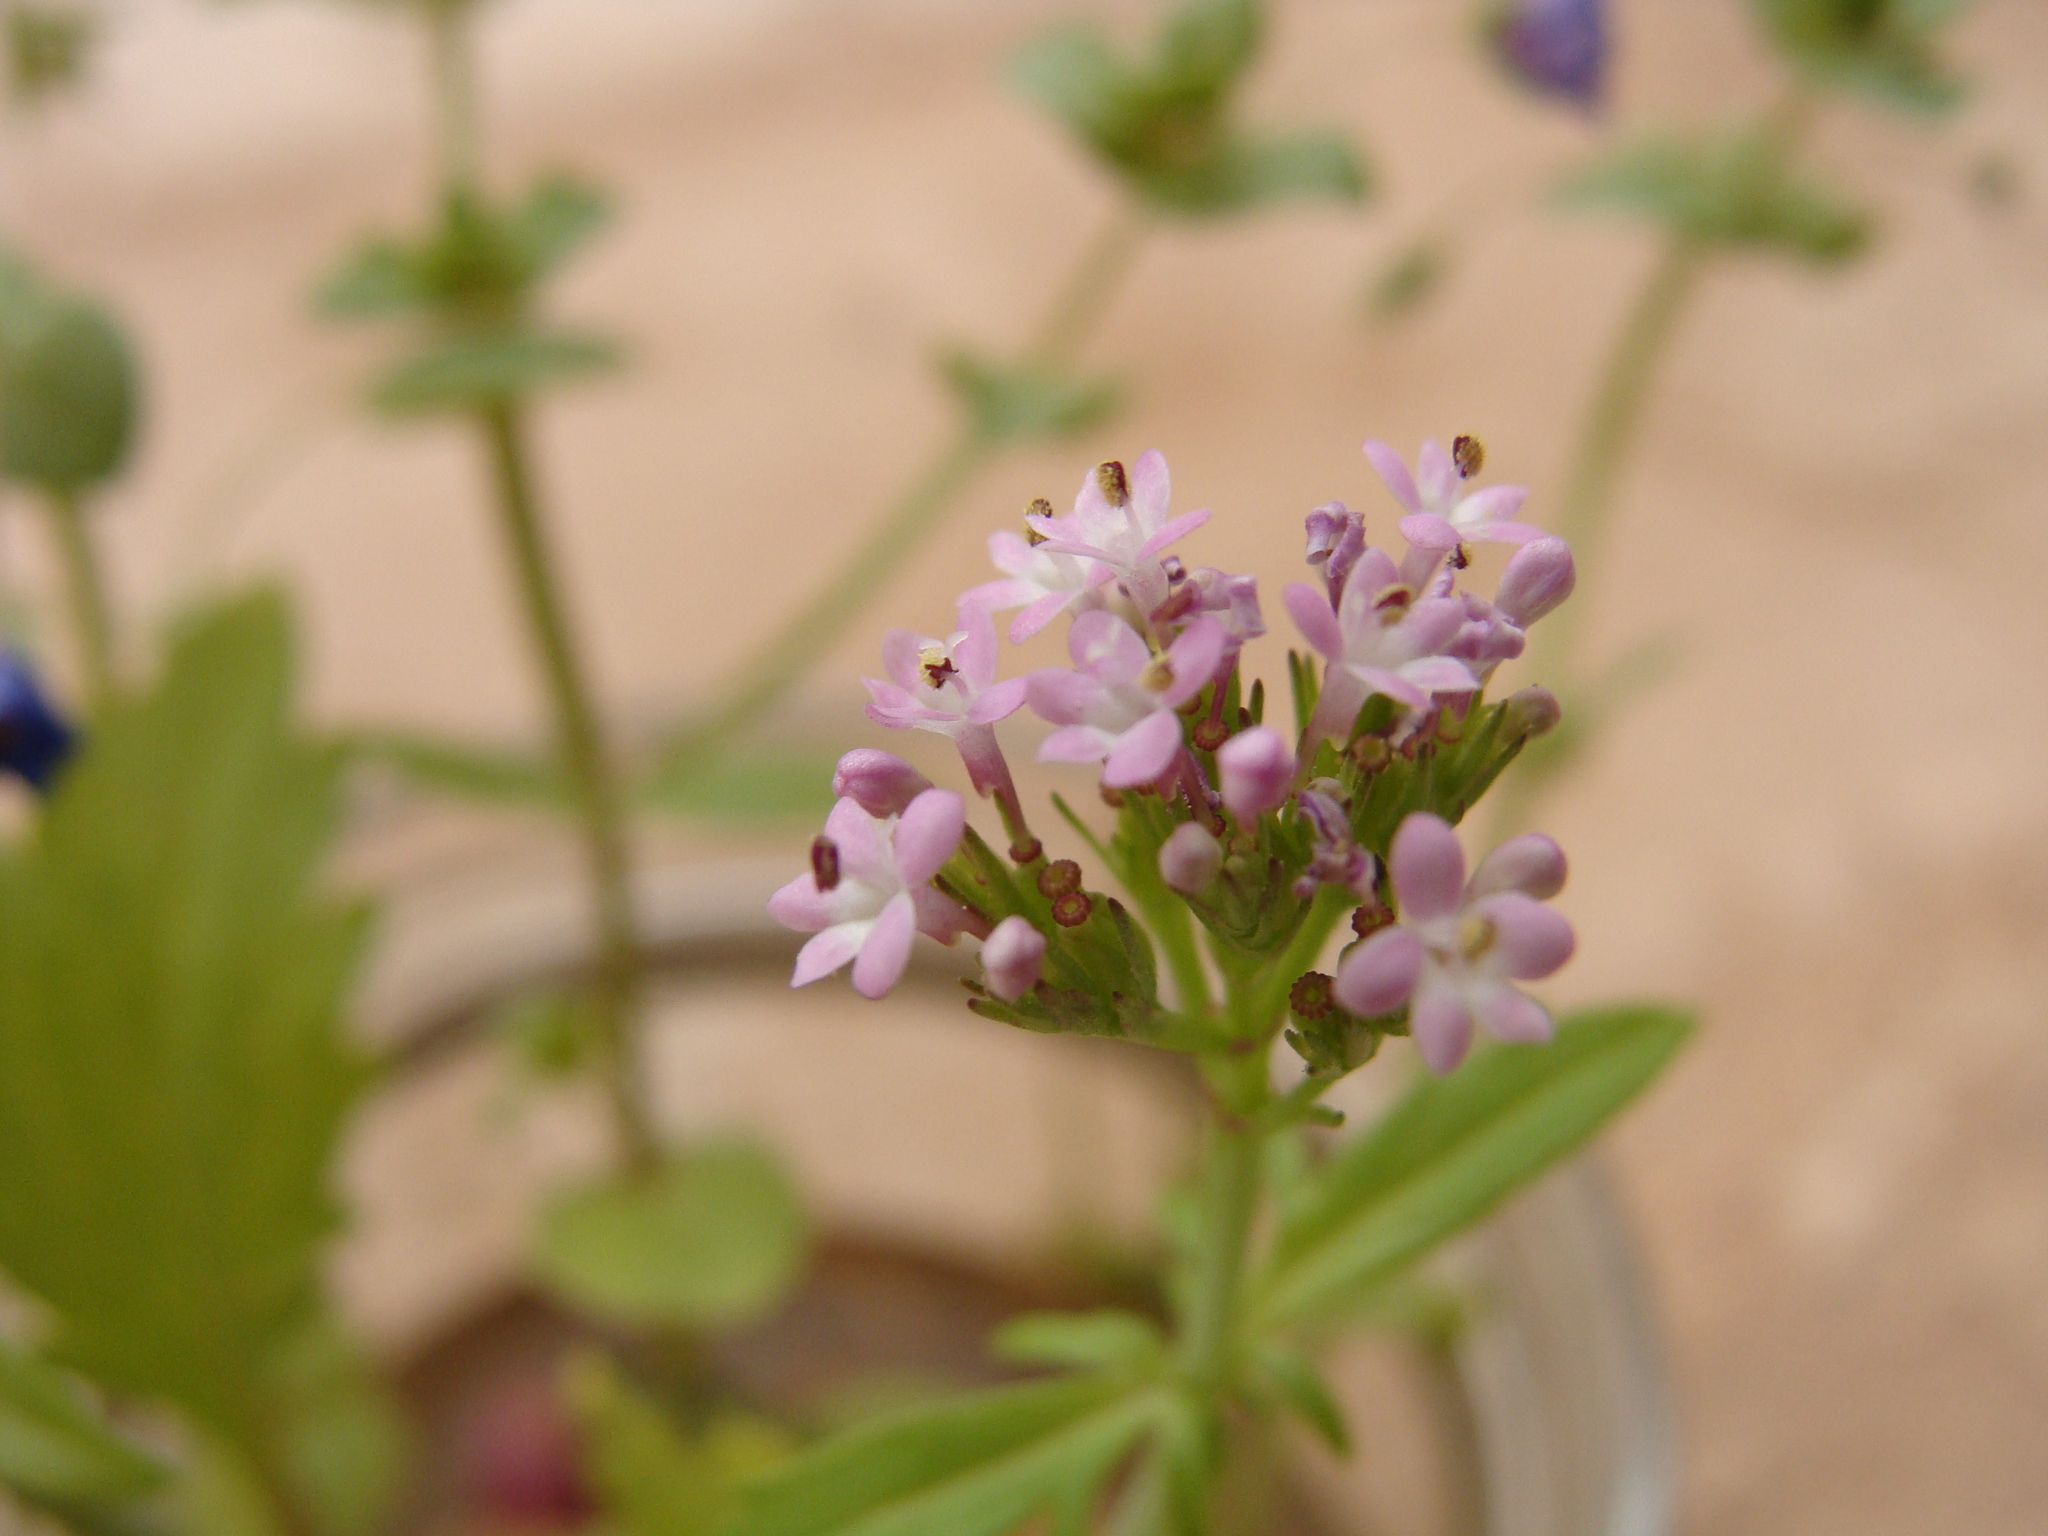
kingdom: Plantae
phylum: Tracheophyta
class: Magnoliopsida
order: Dipsacales
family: Caprifoliaceae
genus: Centranthus
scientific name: Centranthus calcitrapae
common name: Annual valerian
